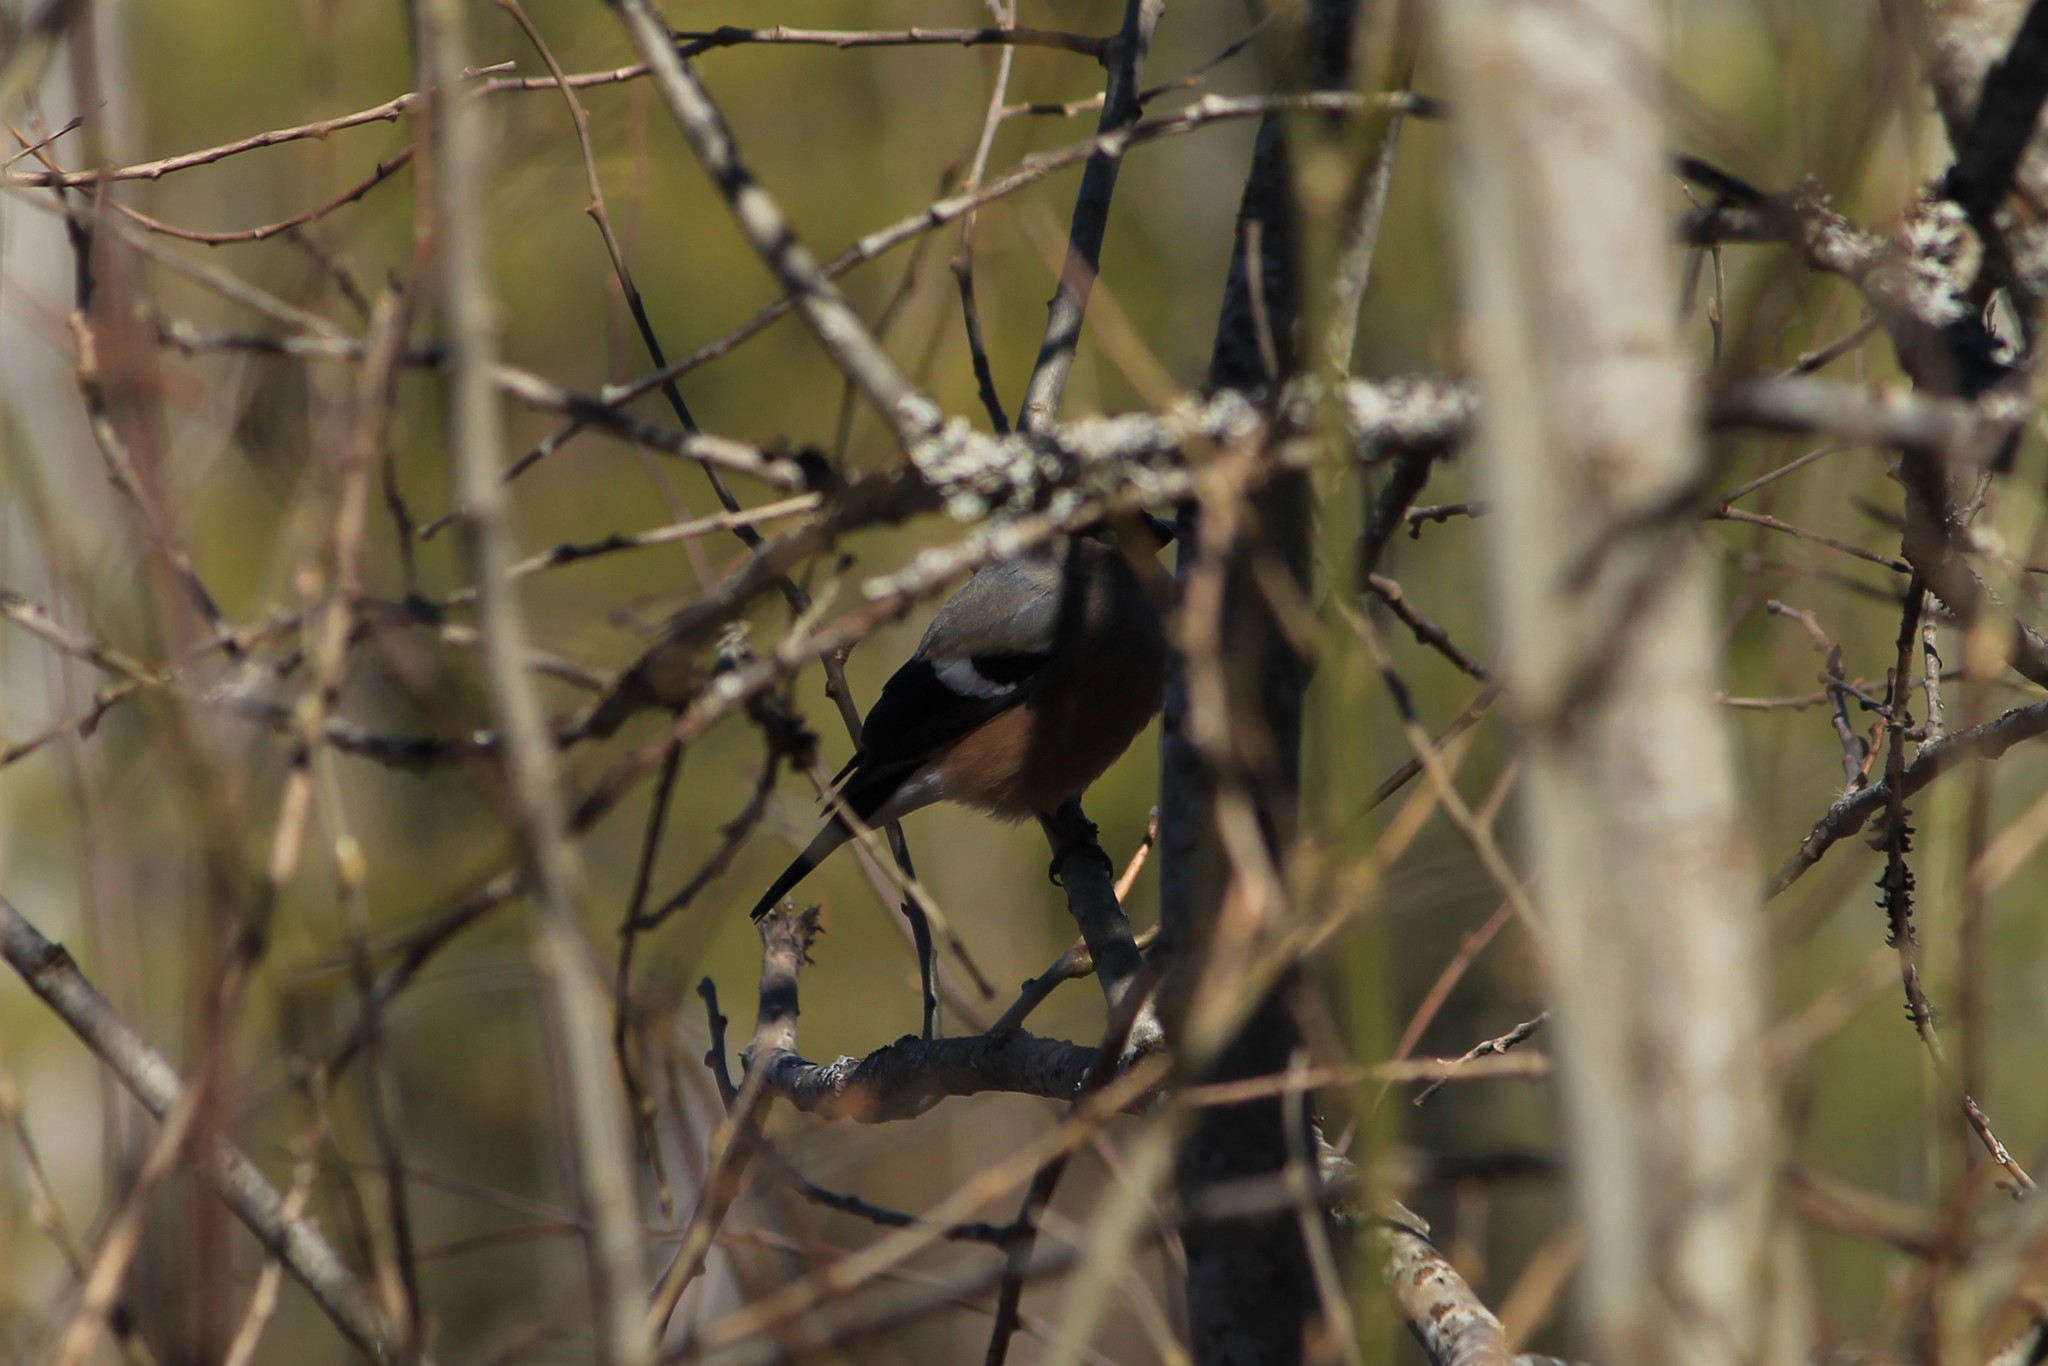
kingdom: Animalia
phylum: Chordata
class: Aves
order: Passeriformes
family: Fringillidae
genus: Pyrrhula
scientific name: Pyrrhula pyrrhula
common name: Eurasian bullfinch
